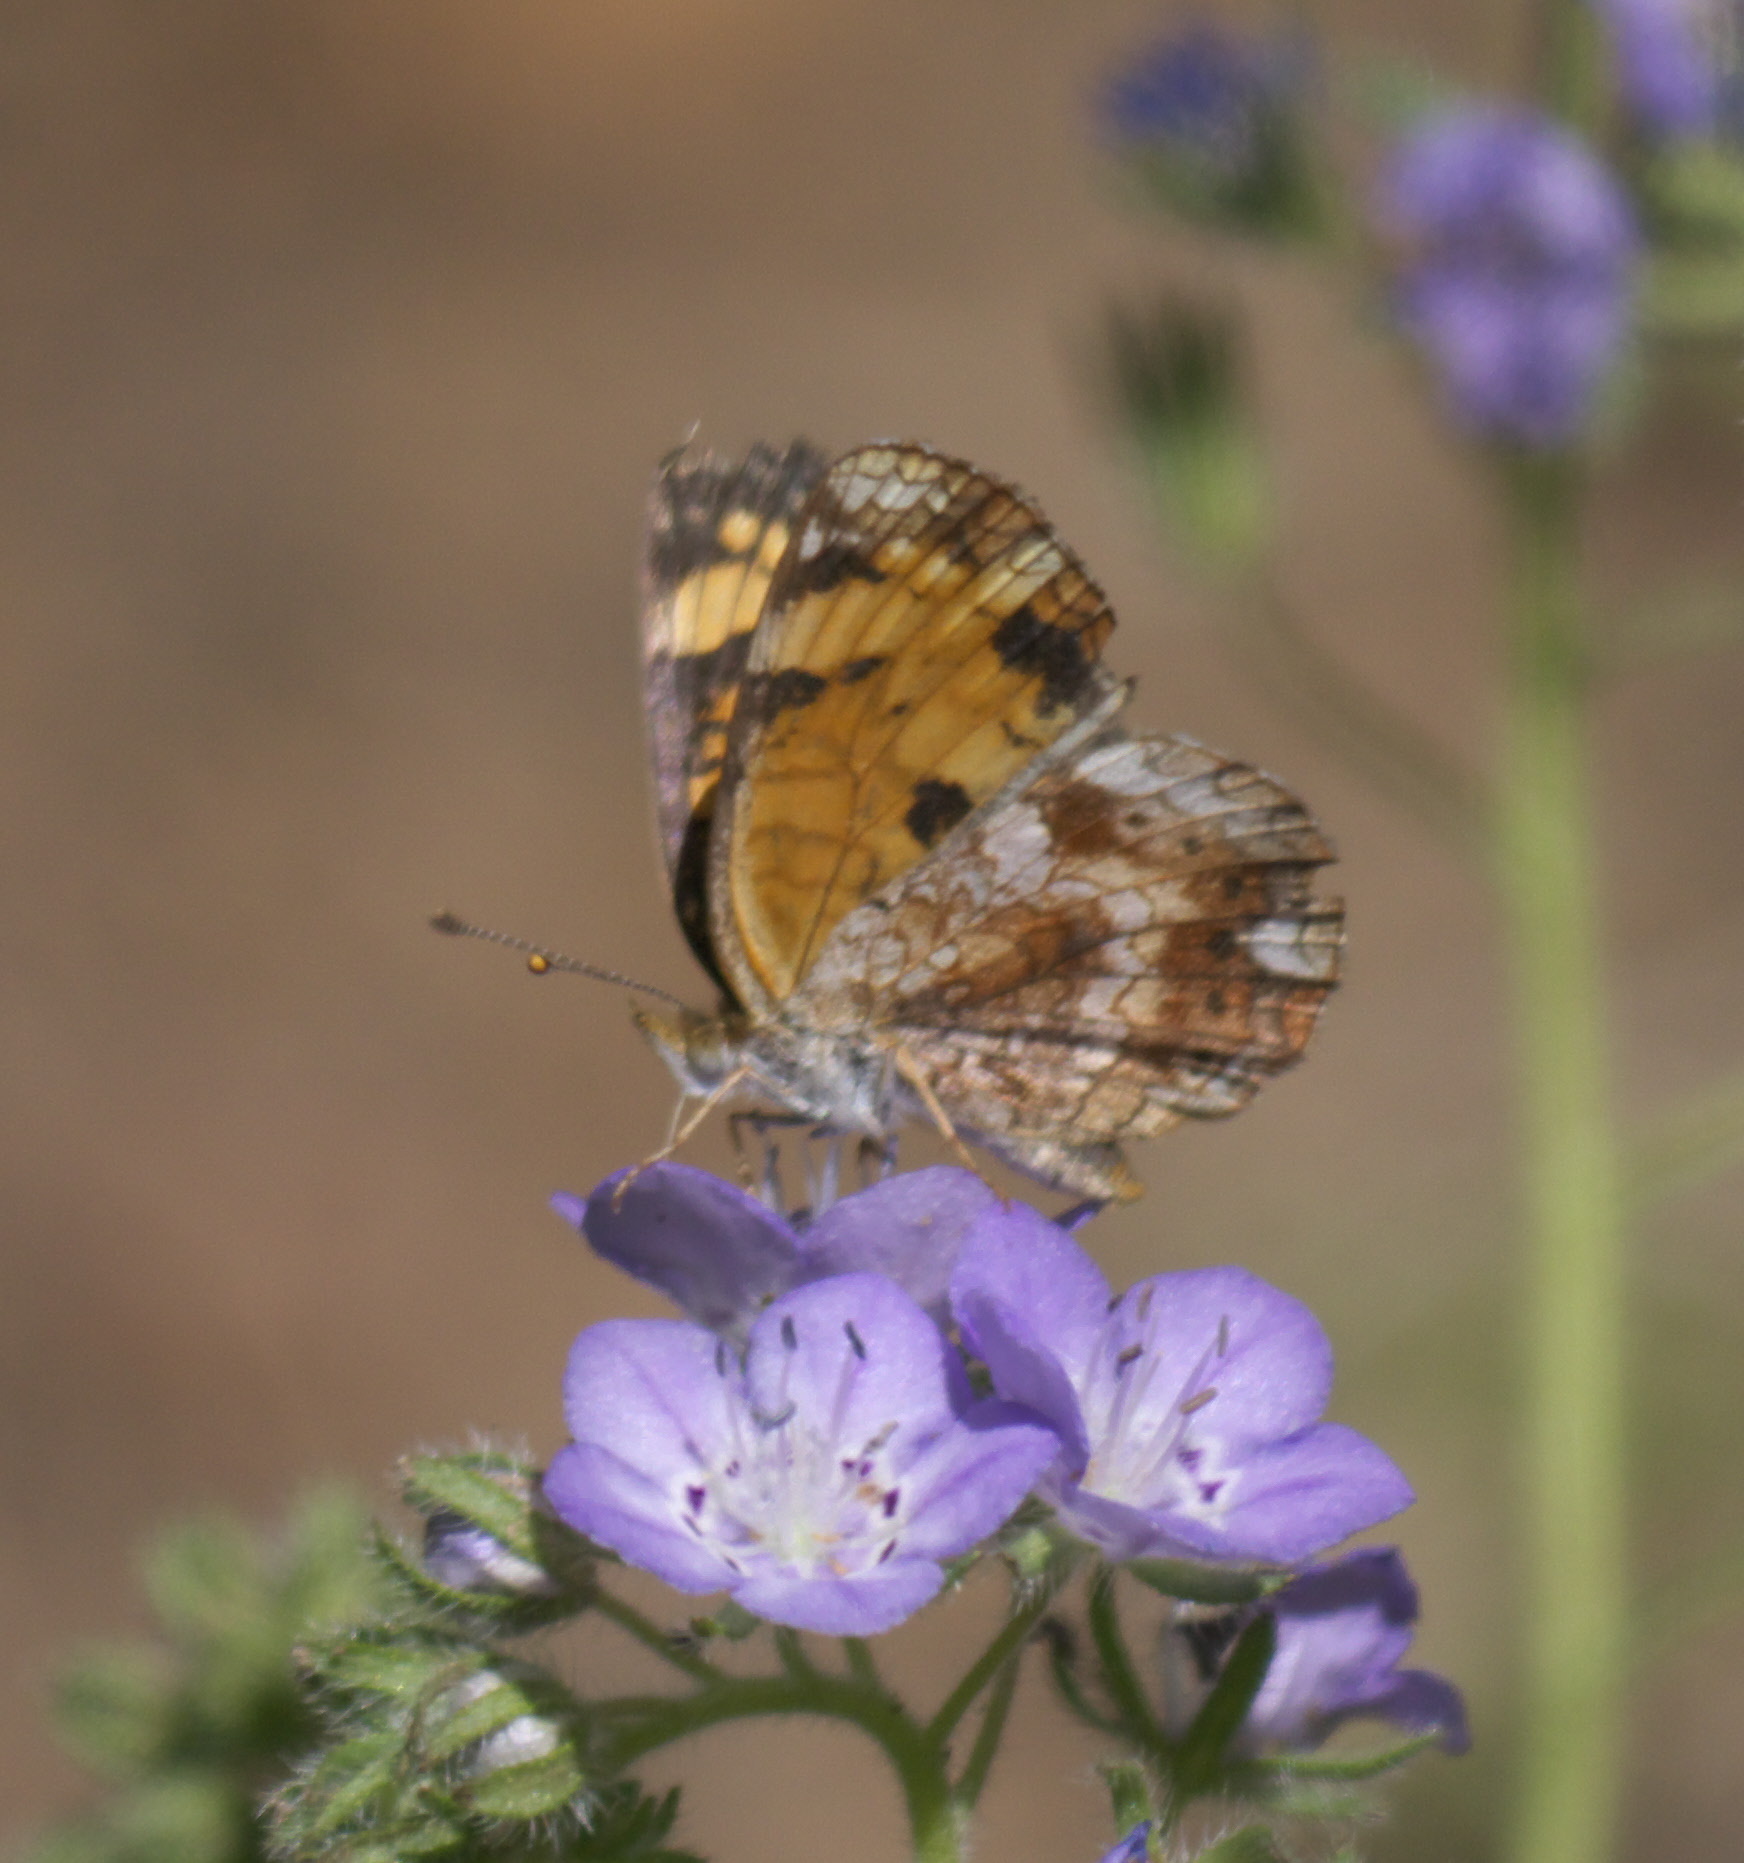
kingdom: Animalia
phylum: Arthropoda
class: Insecta
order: Lepidoptera
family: Nymphalidae
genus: Phyciodes
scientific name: Phyciodes tharos
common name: Pearl crescent
